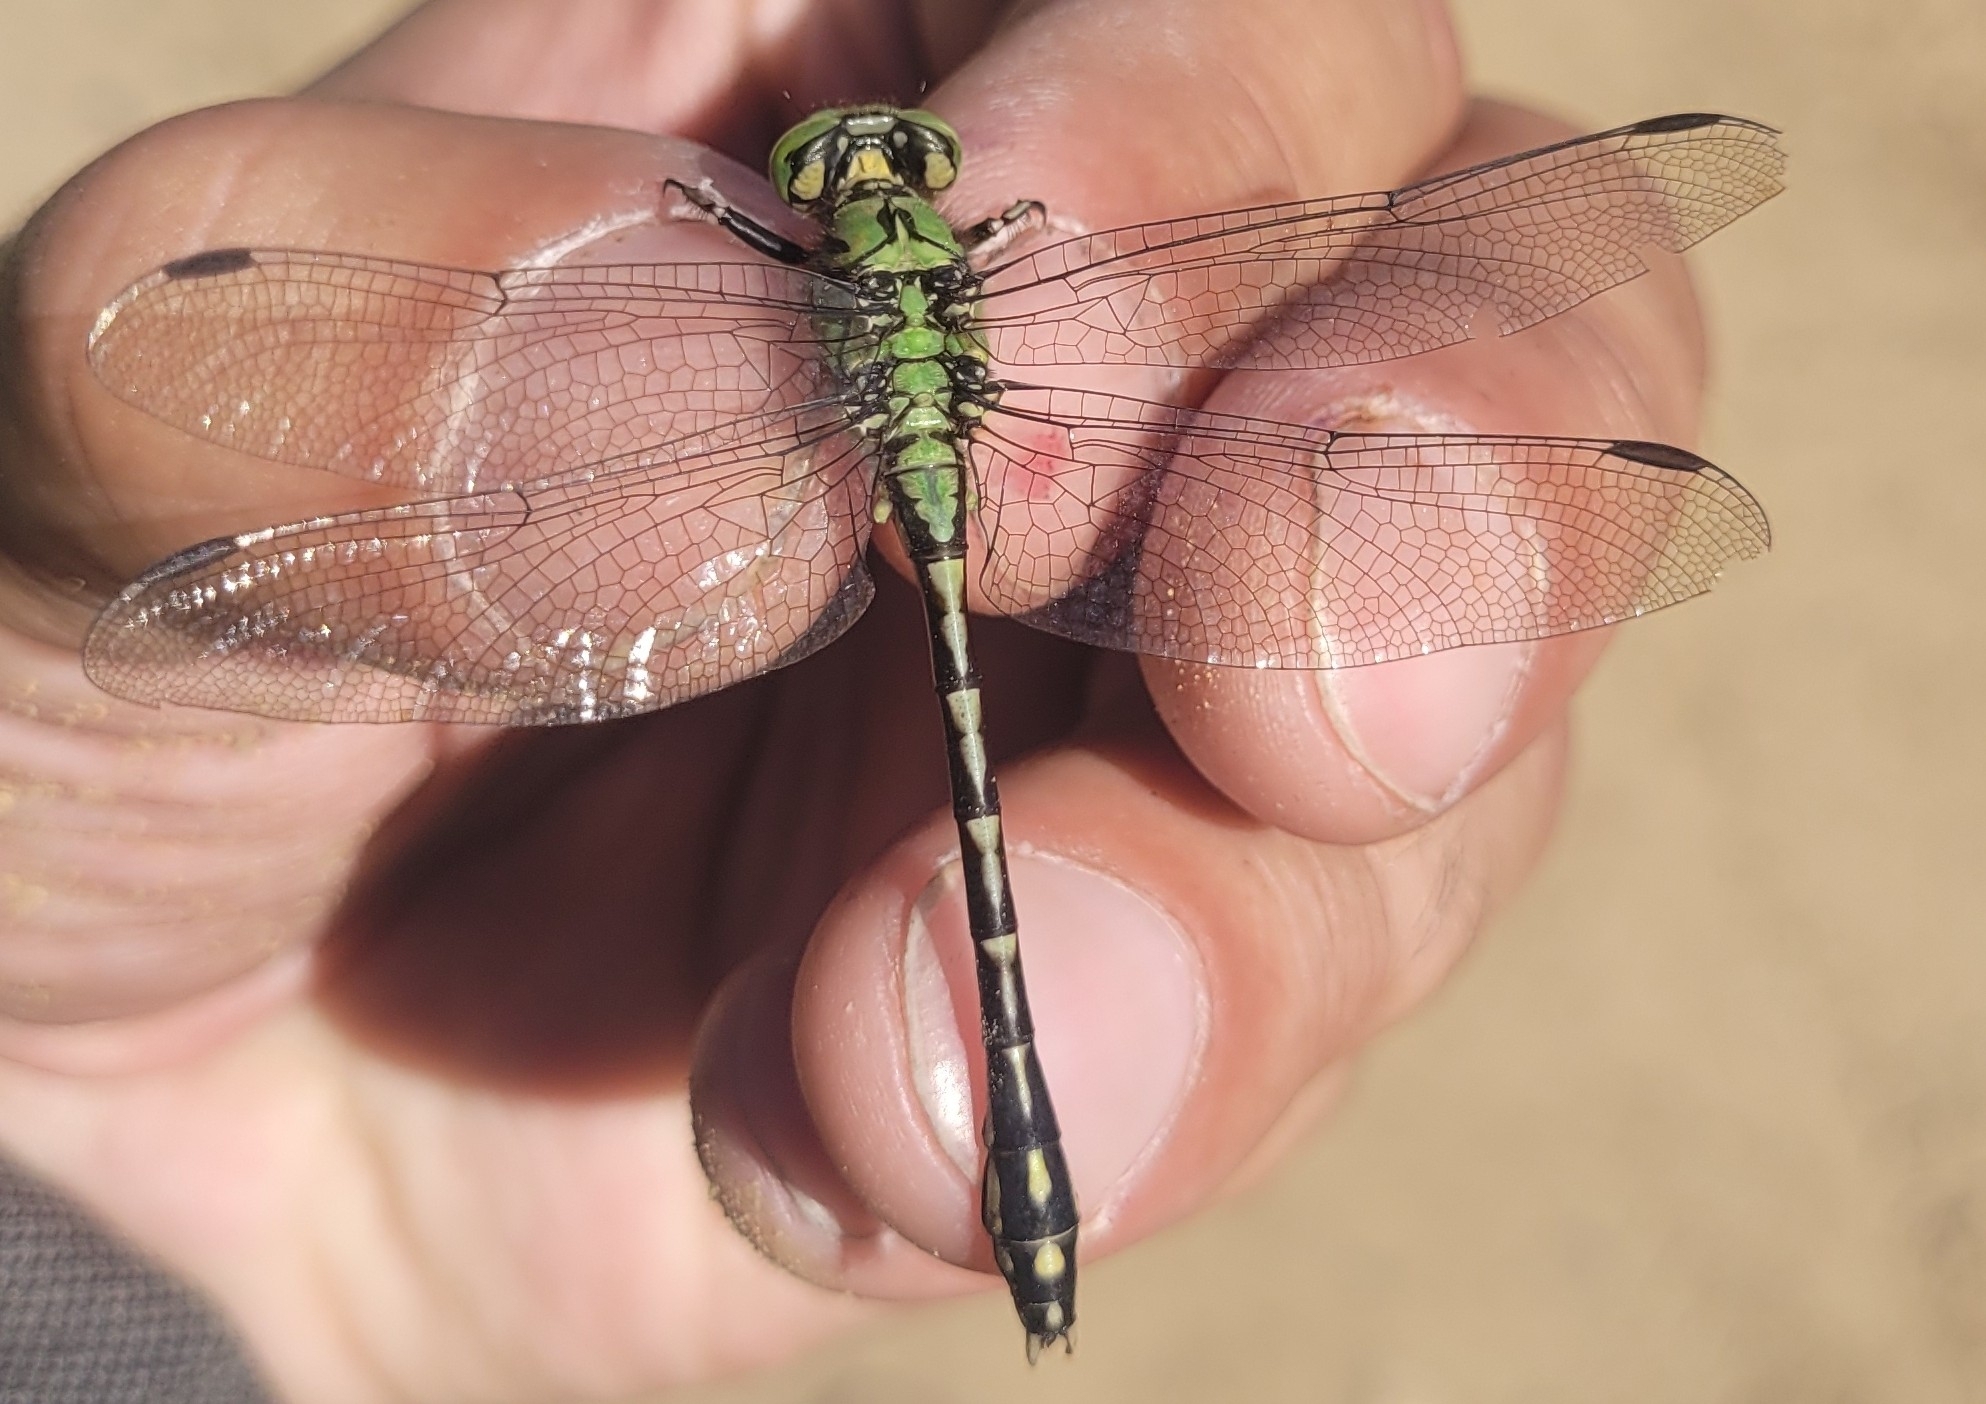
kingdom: Animalia
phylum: Arthropoda
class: Insecta
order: Odonata
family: Gomphidae
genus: Ophiogomphus
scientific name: Ophiogomphus cecilia
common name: Green snaketail
